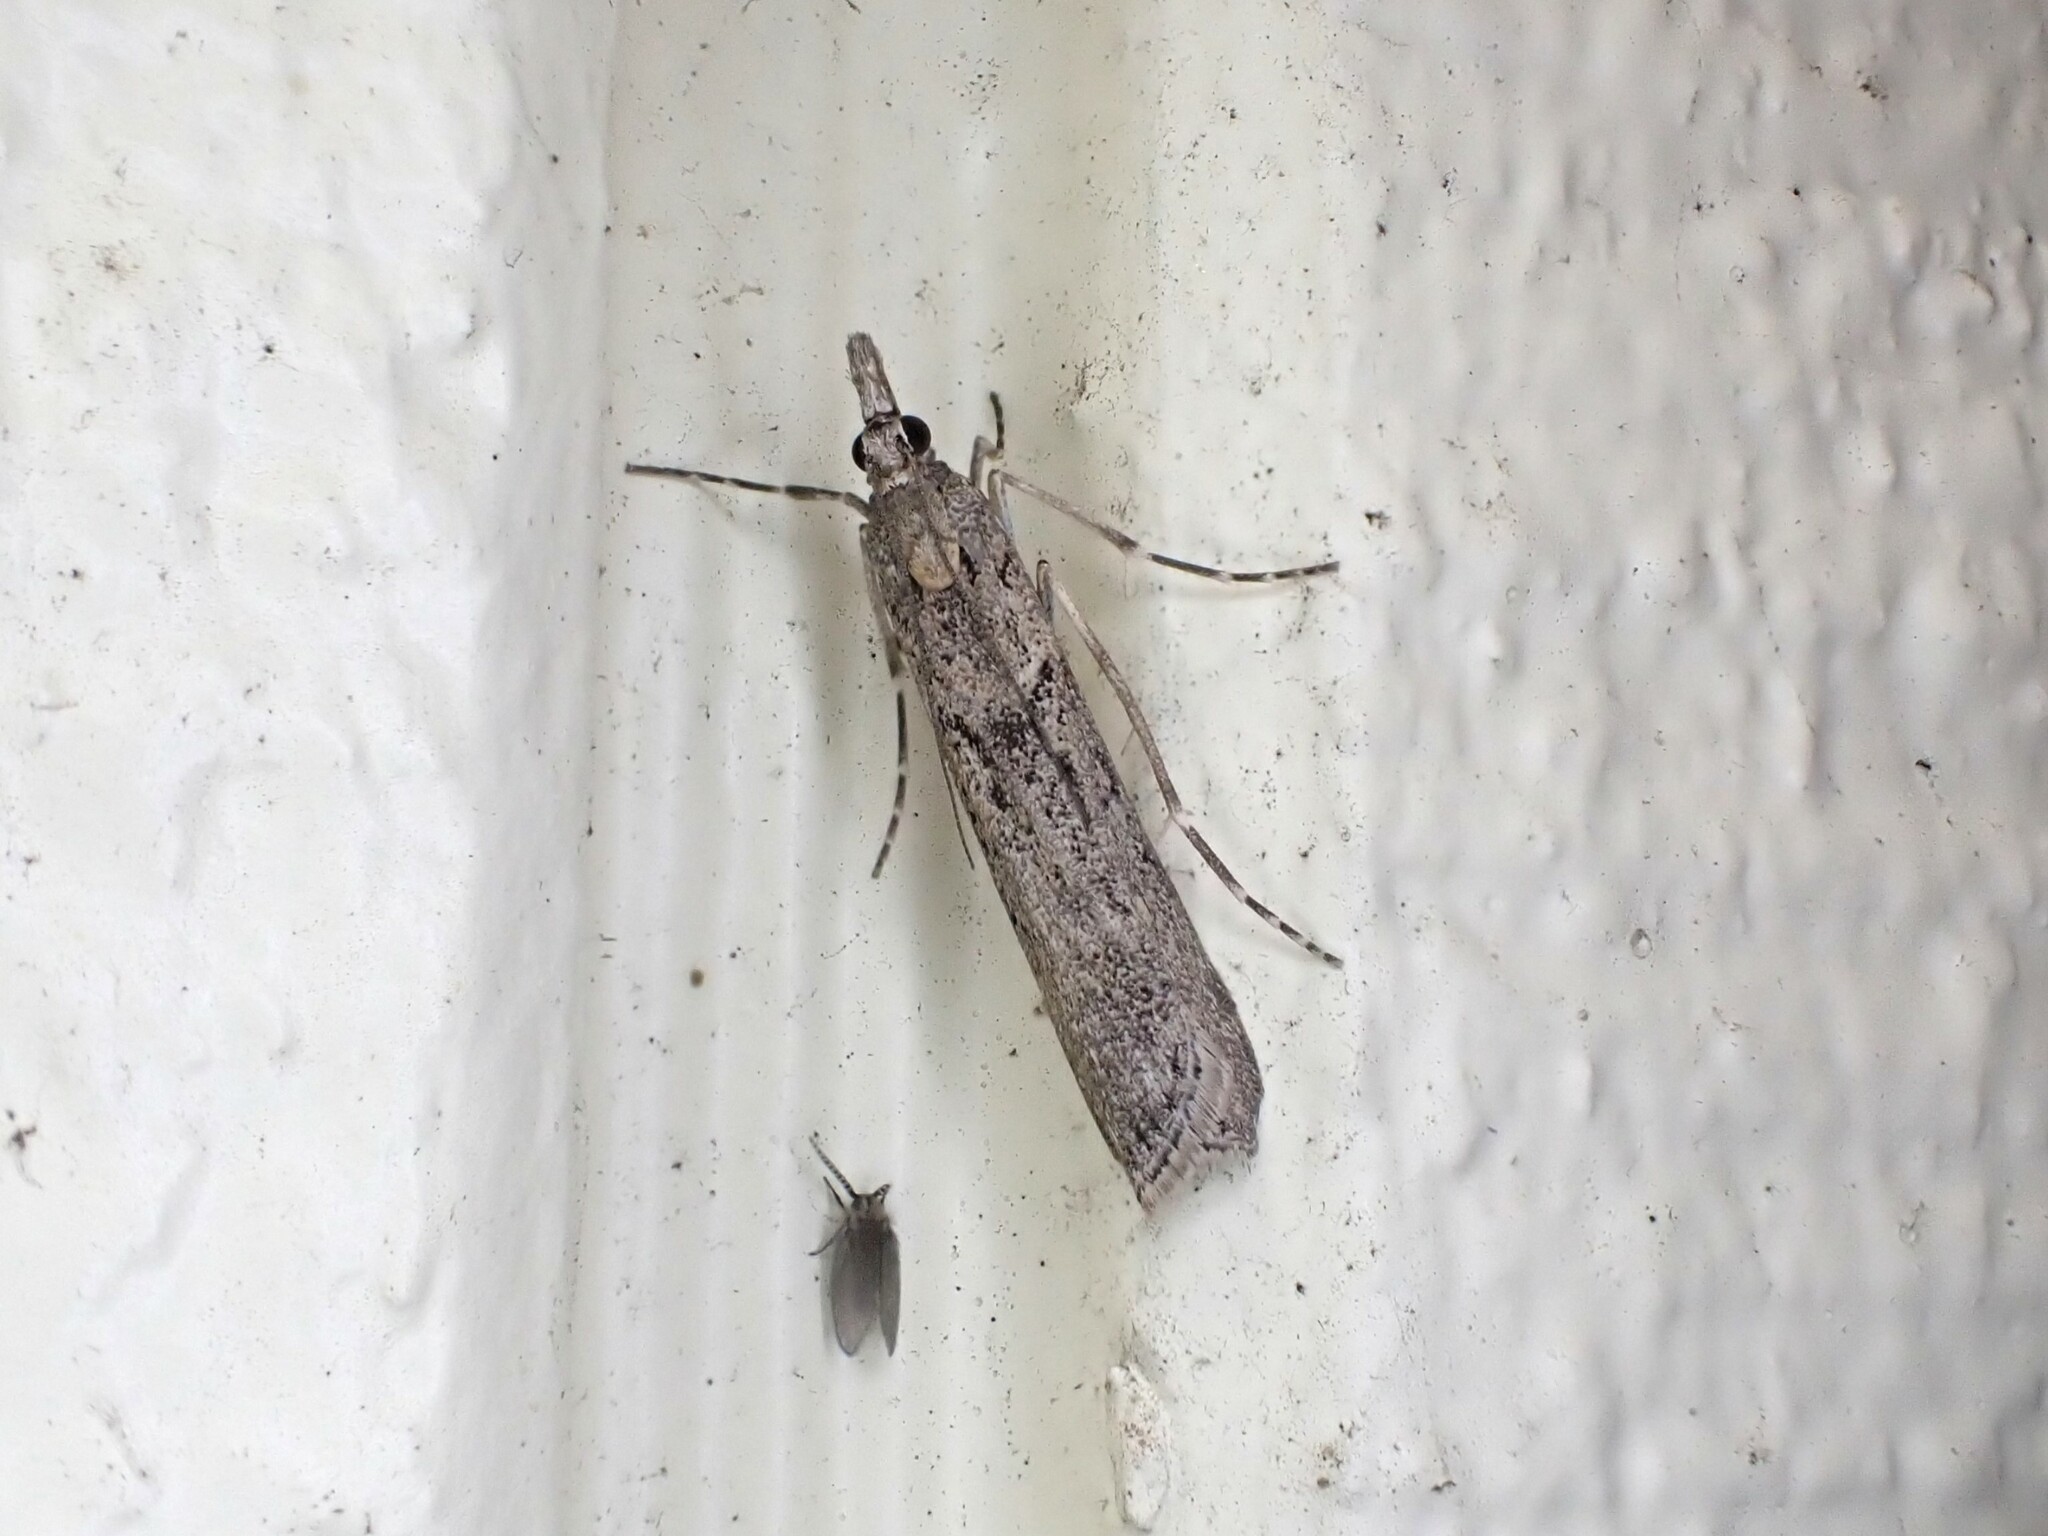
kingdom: Animalia
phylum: Arthropoda
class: Insecta
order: Lepidoptera
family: Crambidae
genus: Eudonia
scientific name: Eudonia leptalea
